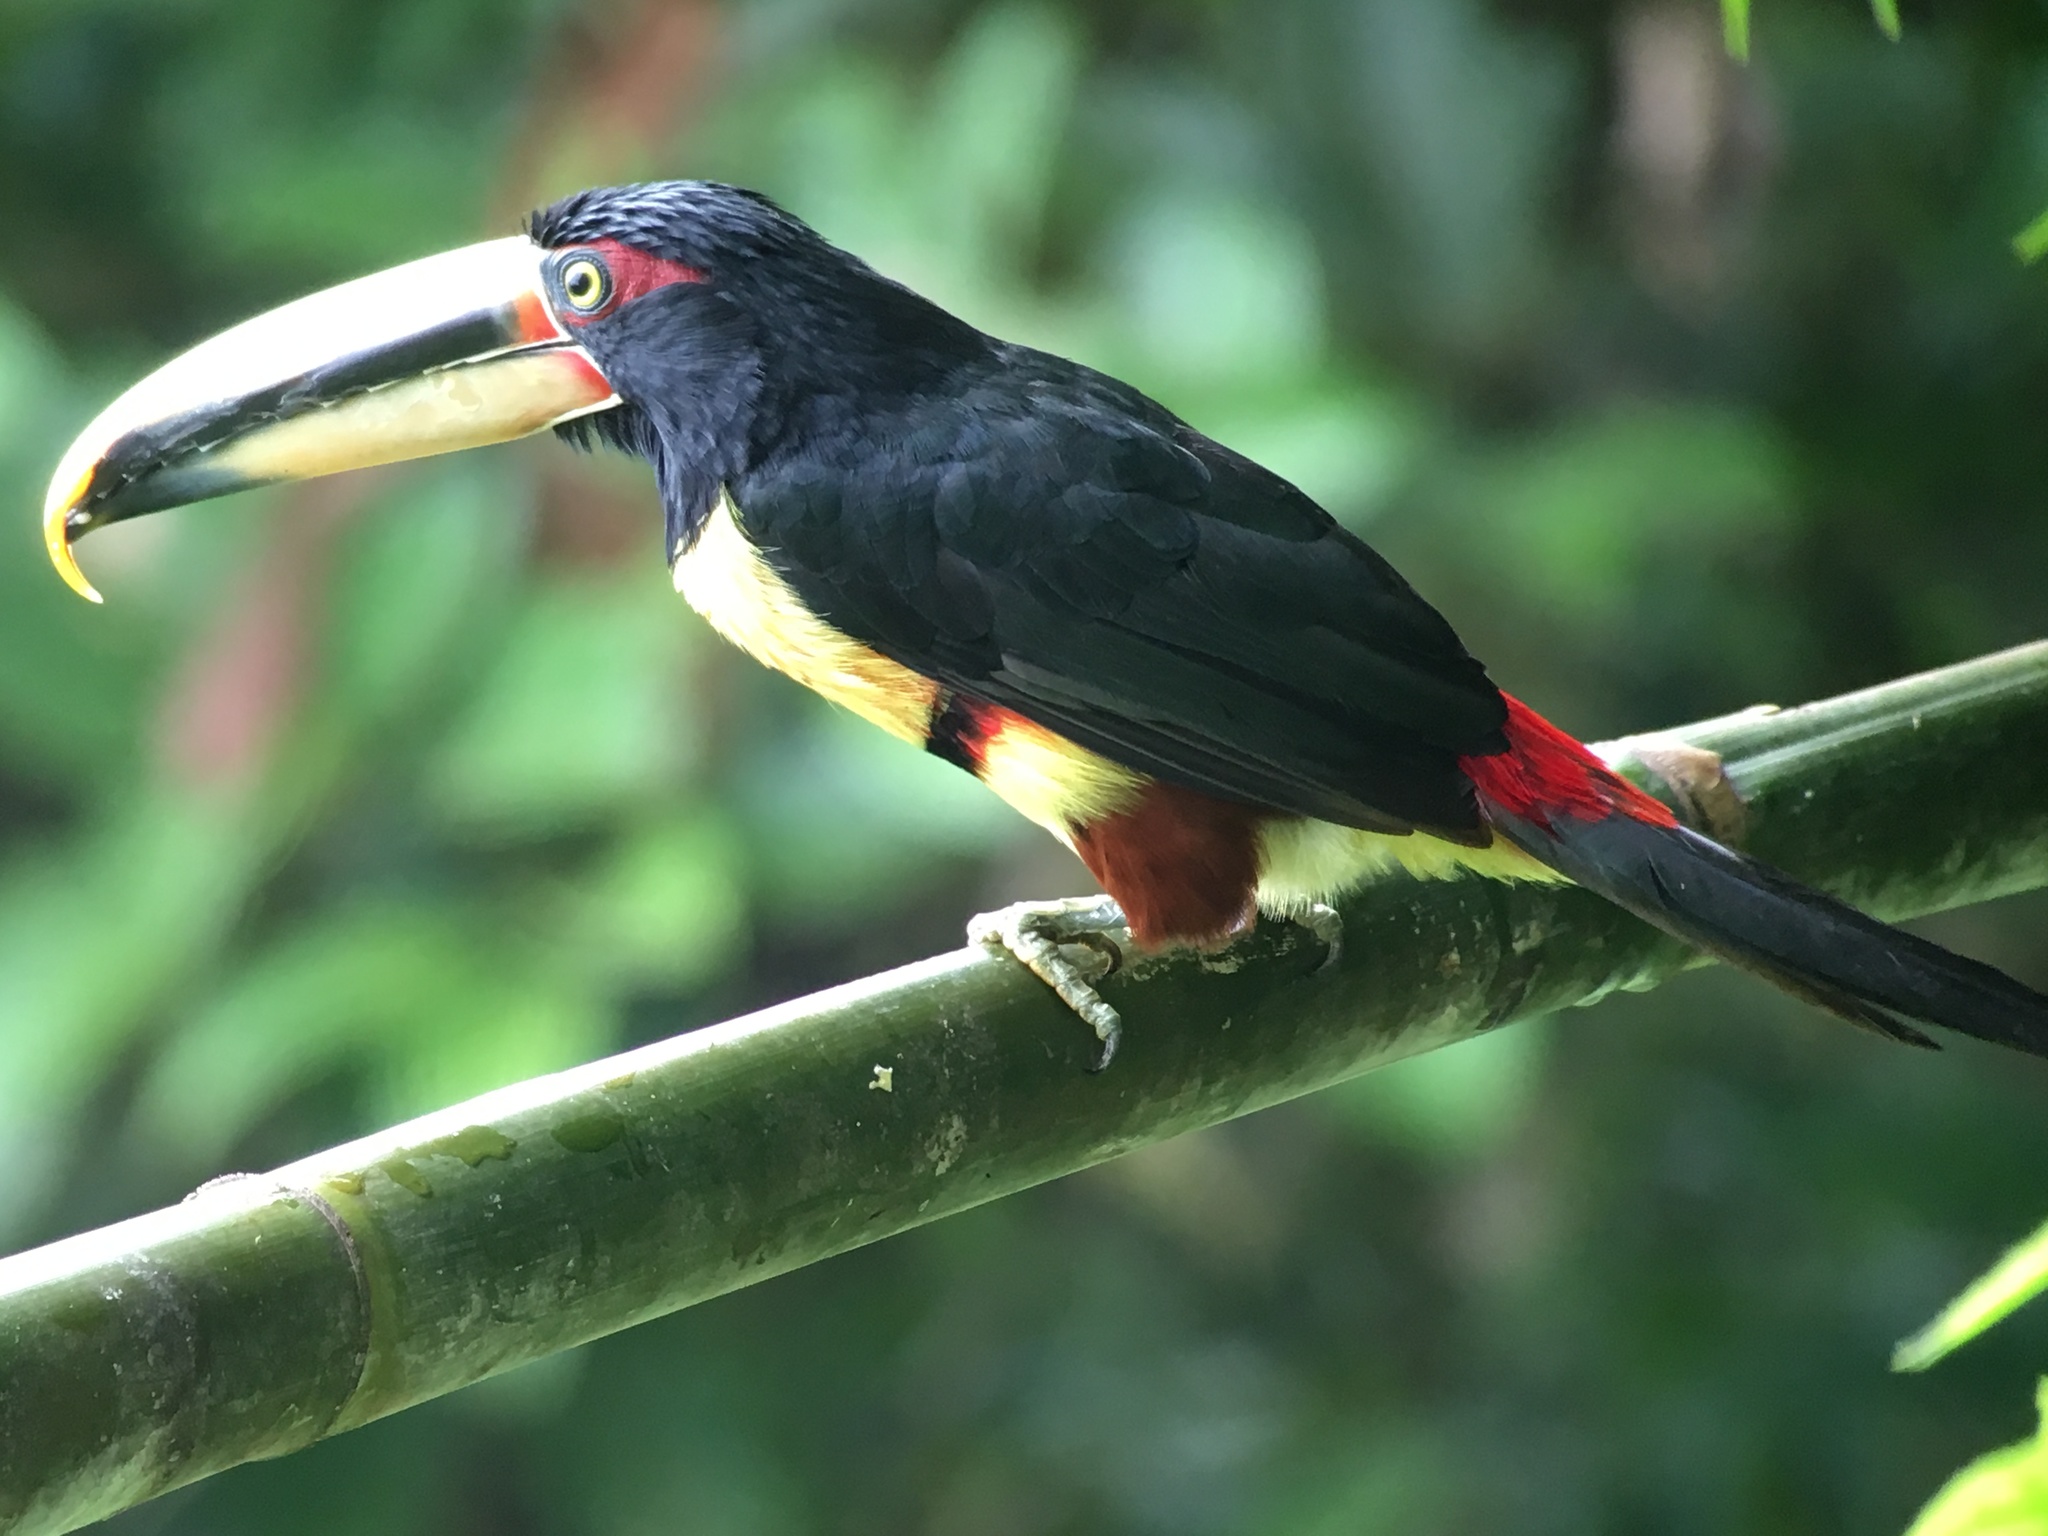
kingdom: Animalia
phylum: Chordata
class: Aves
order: Piciformes
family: Ramphastidae
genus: Pteroglossus
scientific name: Pteroglossus torquatus
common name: Collared aracari
